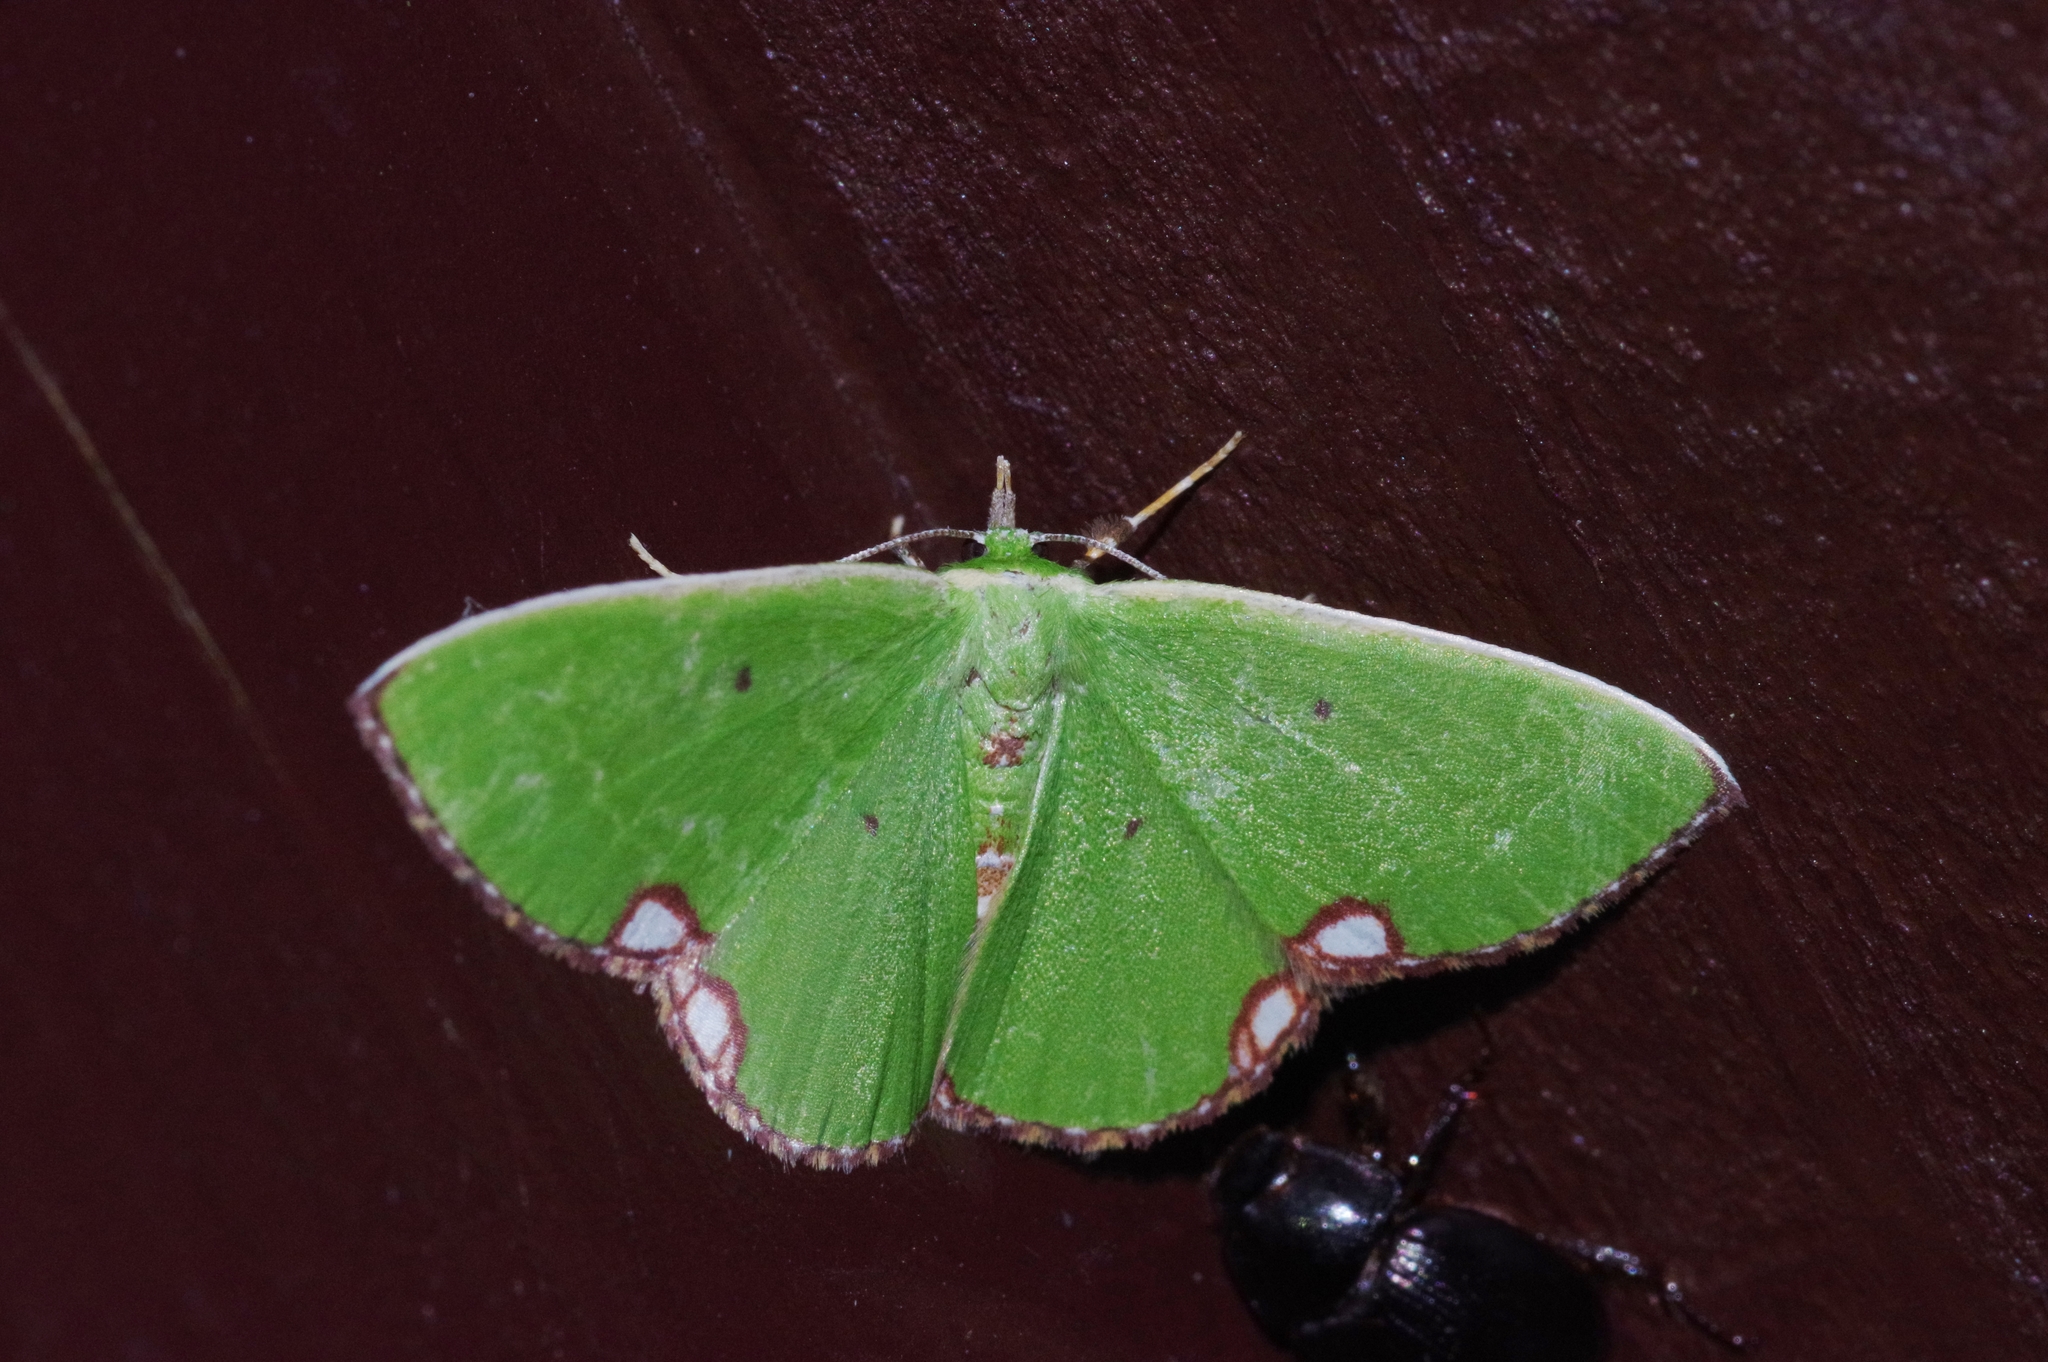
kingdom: Animalia
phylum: Arthropoda
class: Insecta
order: Lepidoptera
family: Geometridae
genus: Comibaena
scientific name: Comibaena procumbaria
